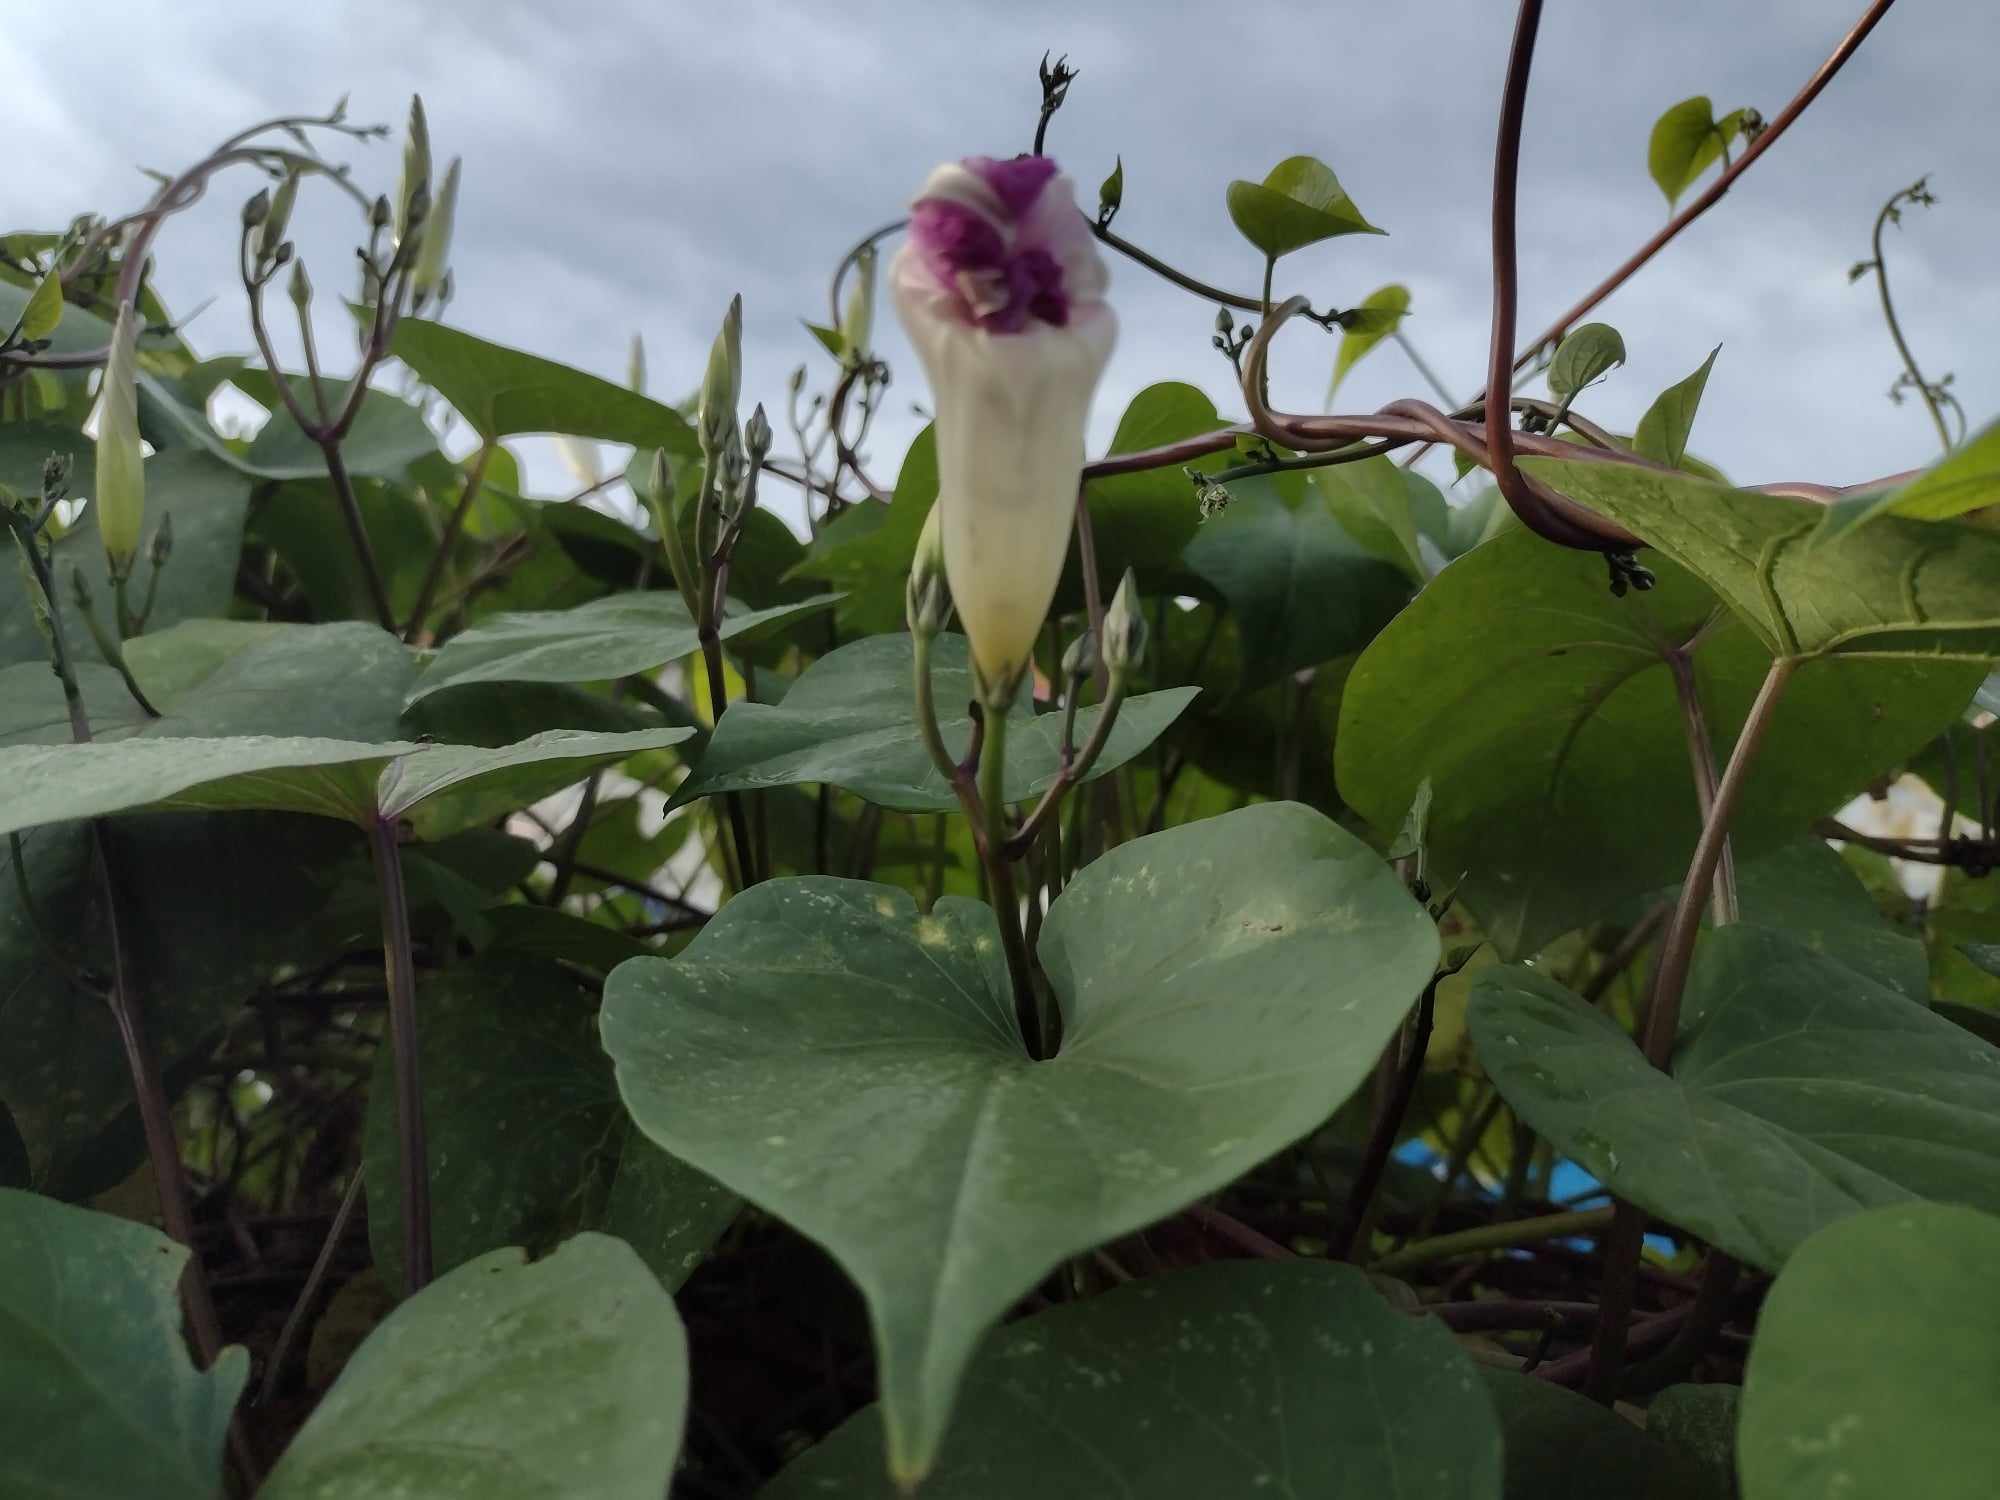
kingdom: Plantae
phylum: Tracheophyta
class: Magnoliopsida
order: Solanales
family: Convolvulaceae
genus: Ipomoea
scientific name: Ipomoea tricolor
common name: Morning-glory
